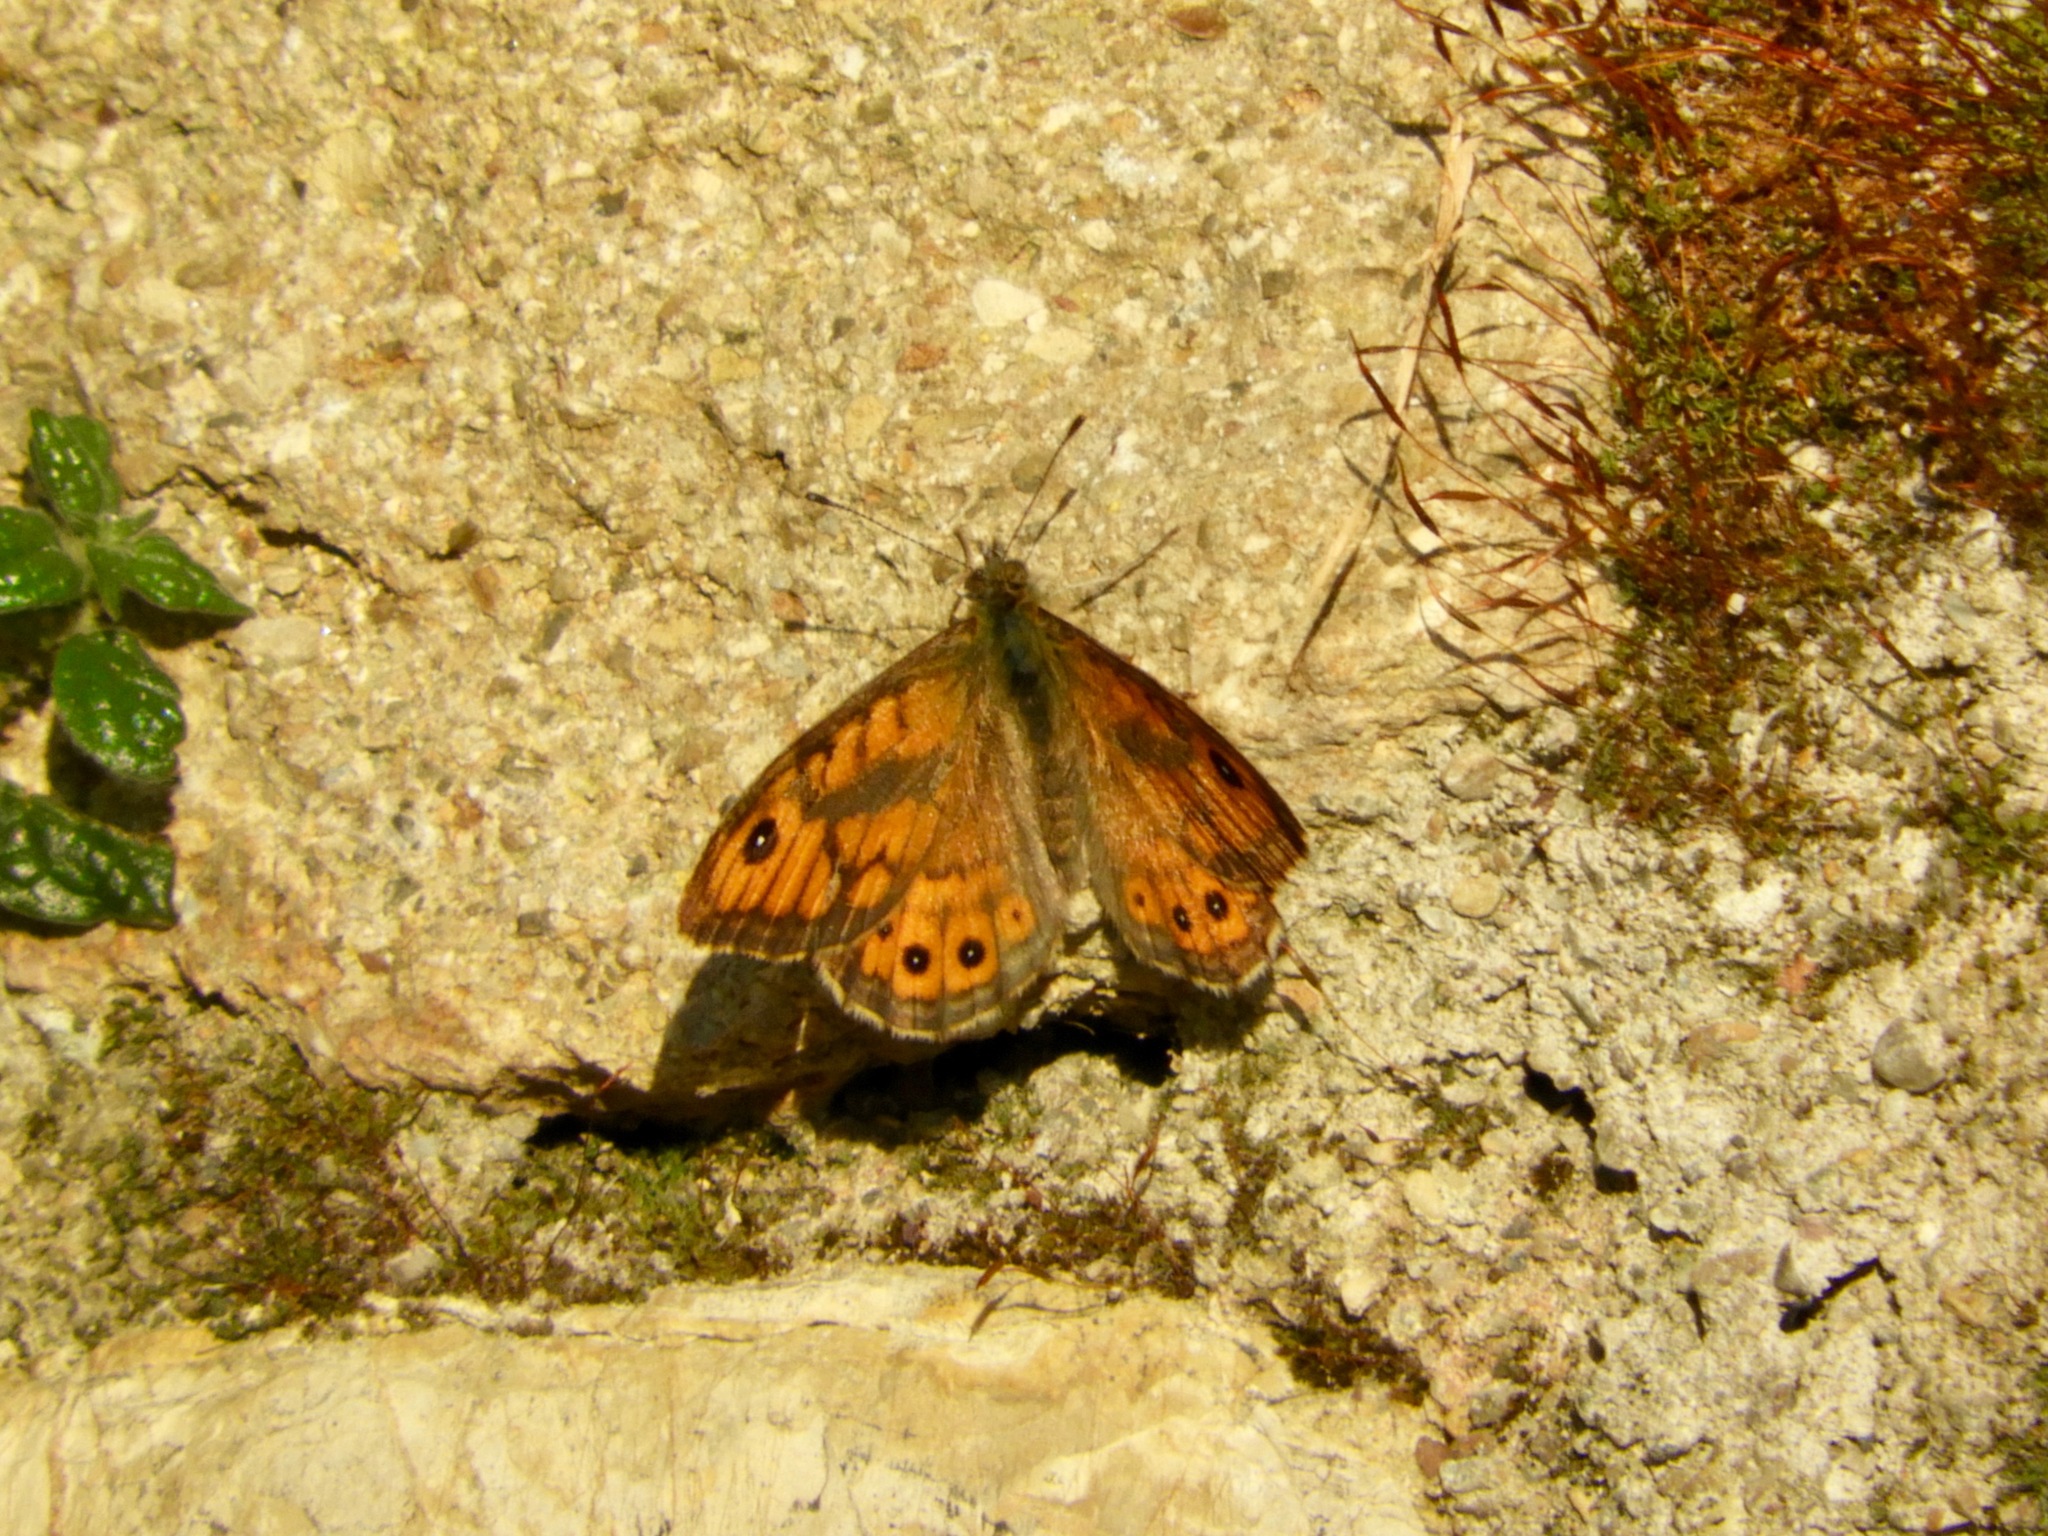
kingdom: Animalia
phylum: Arthropoda
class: Insecta
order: Lepidoptera
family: Nymphalidae
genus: Pararge
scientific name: Pararge Lasiommata megera
